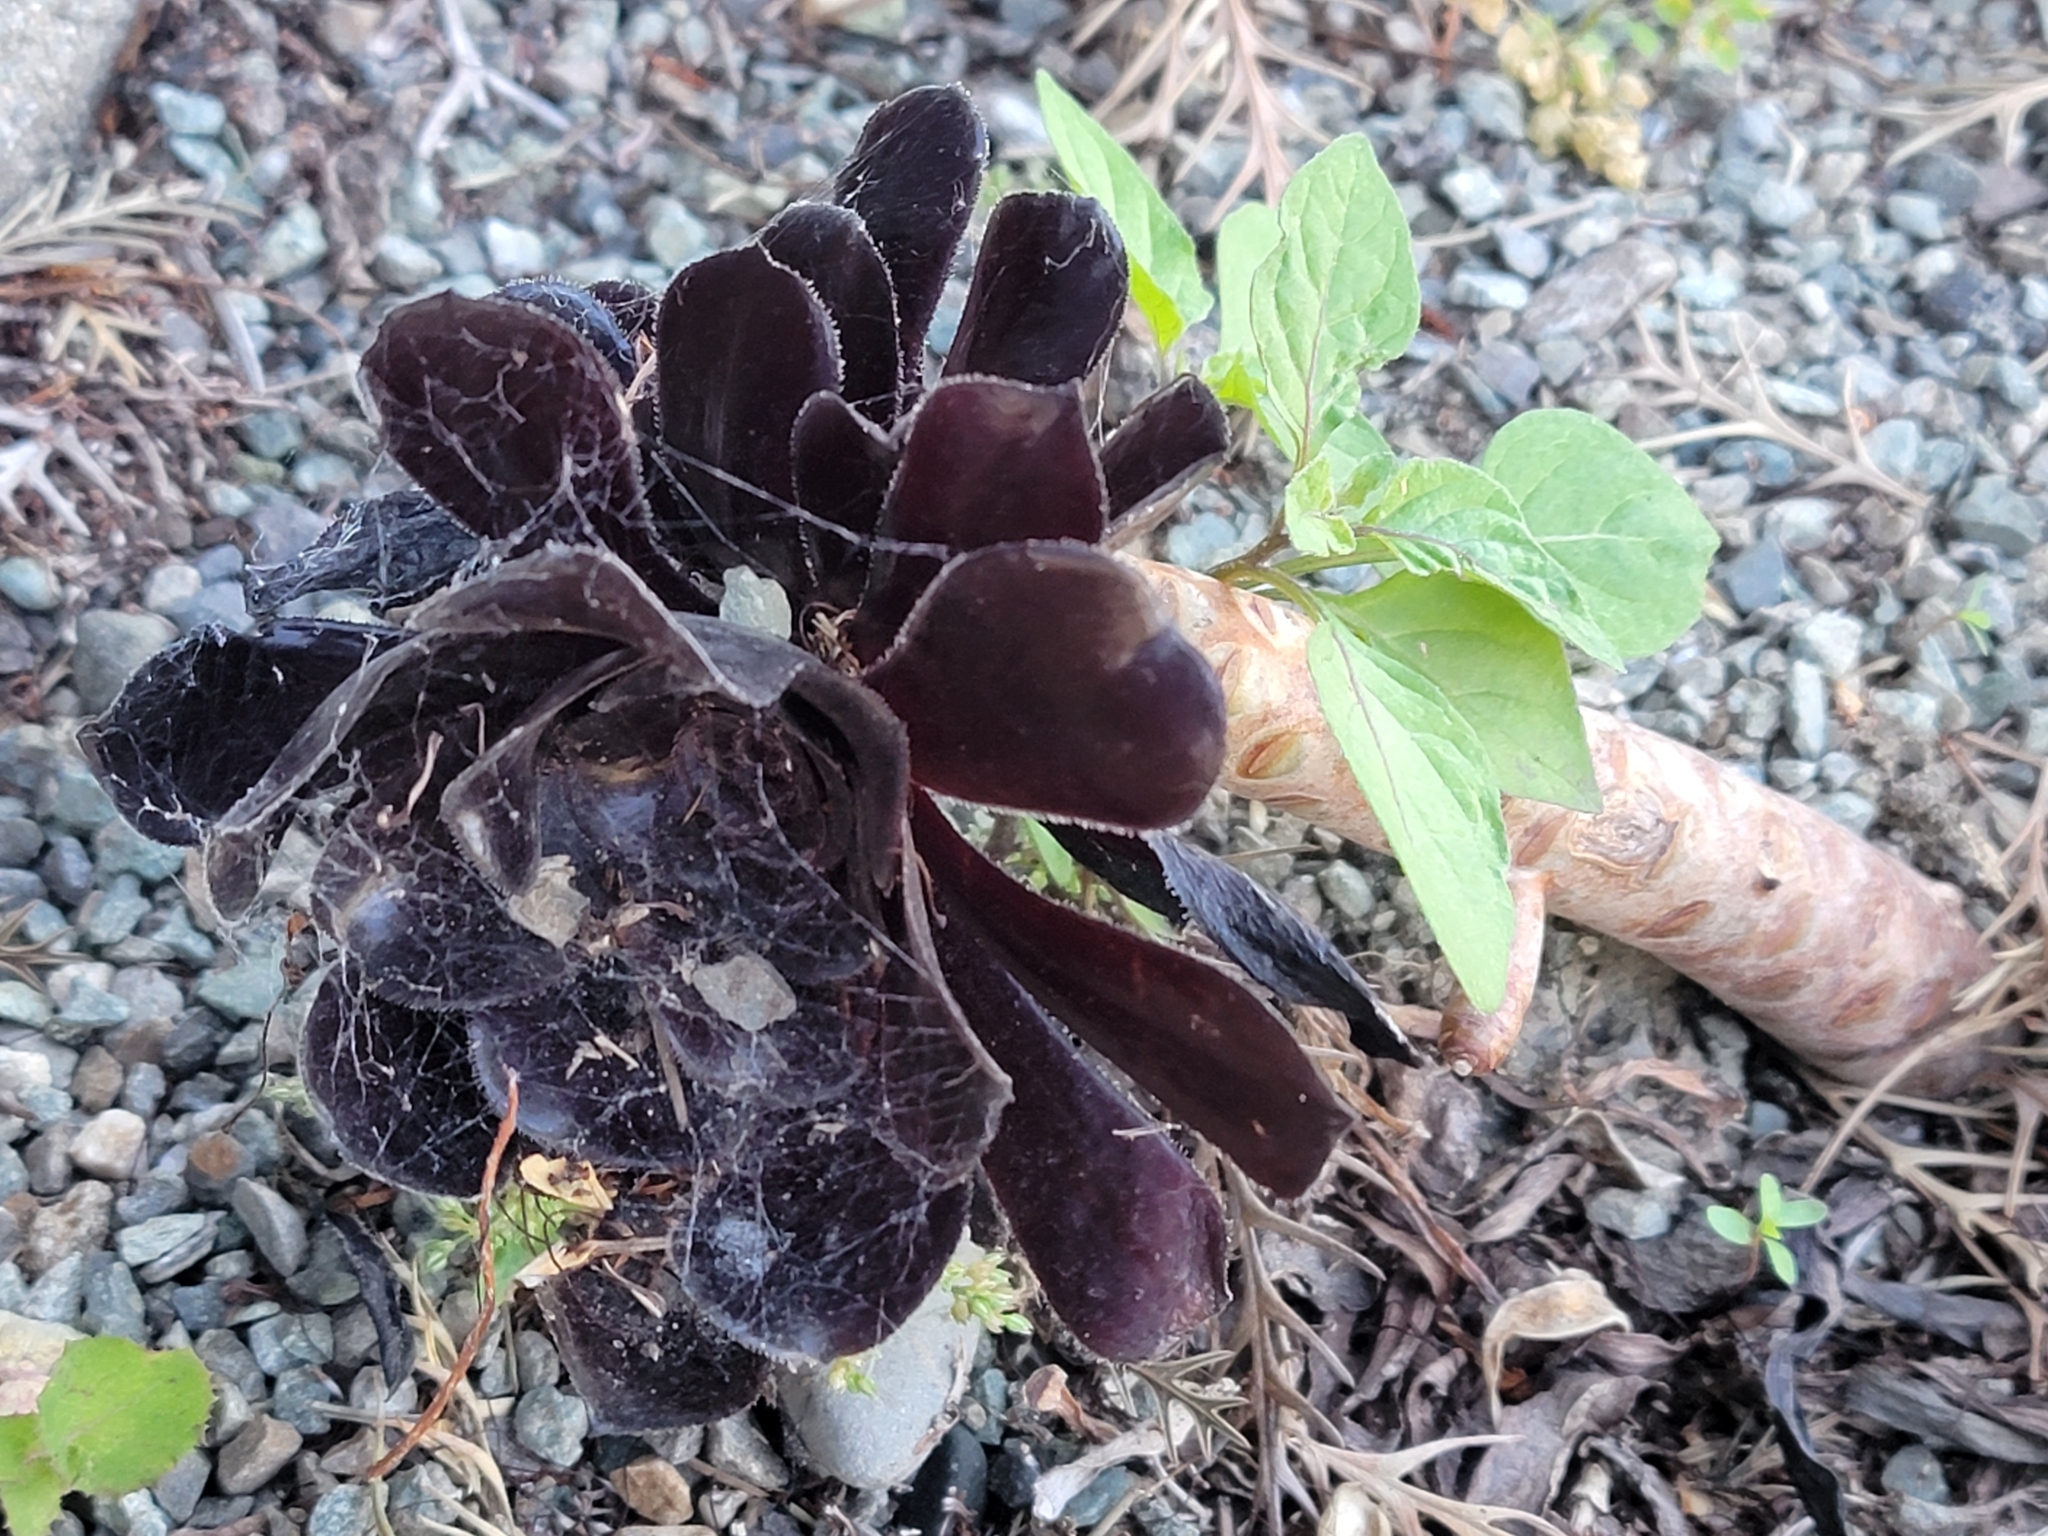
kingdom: Plantae
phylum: Tracheophyta
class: Magnoliopsida
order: Saxifragales
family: Crassulaceae
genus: Aeonium
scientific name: Aeonium arboreum
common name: Tree aeonium
